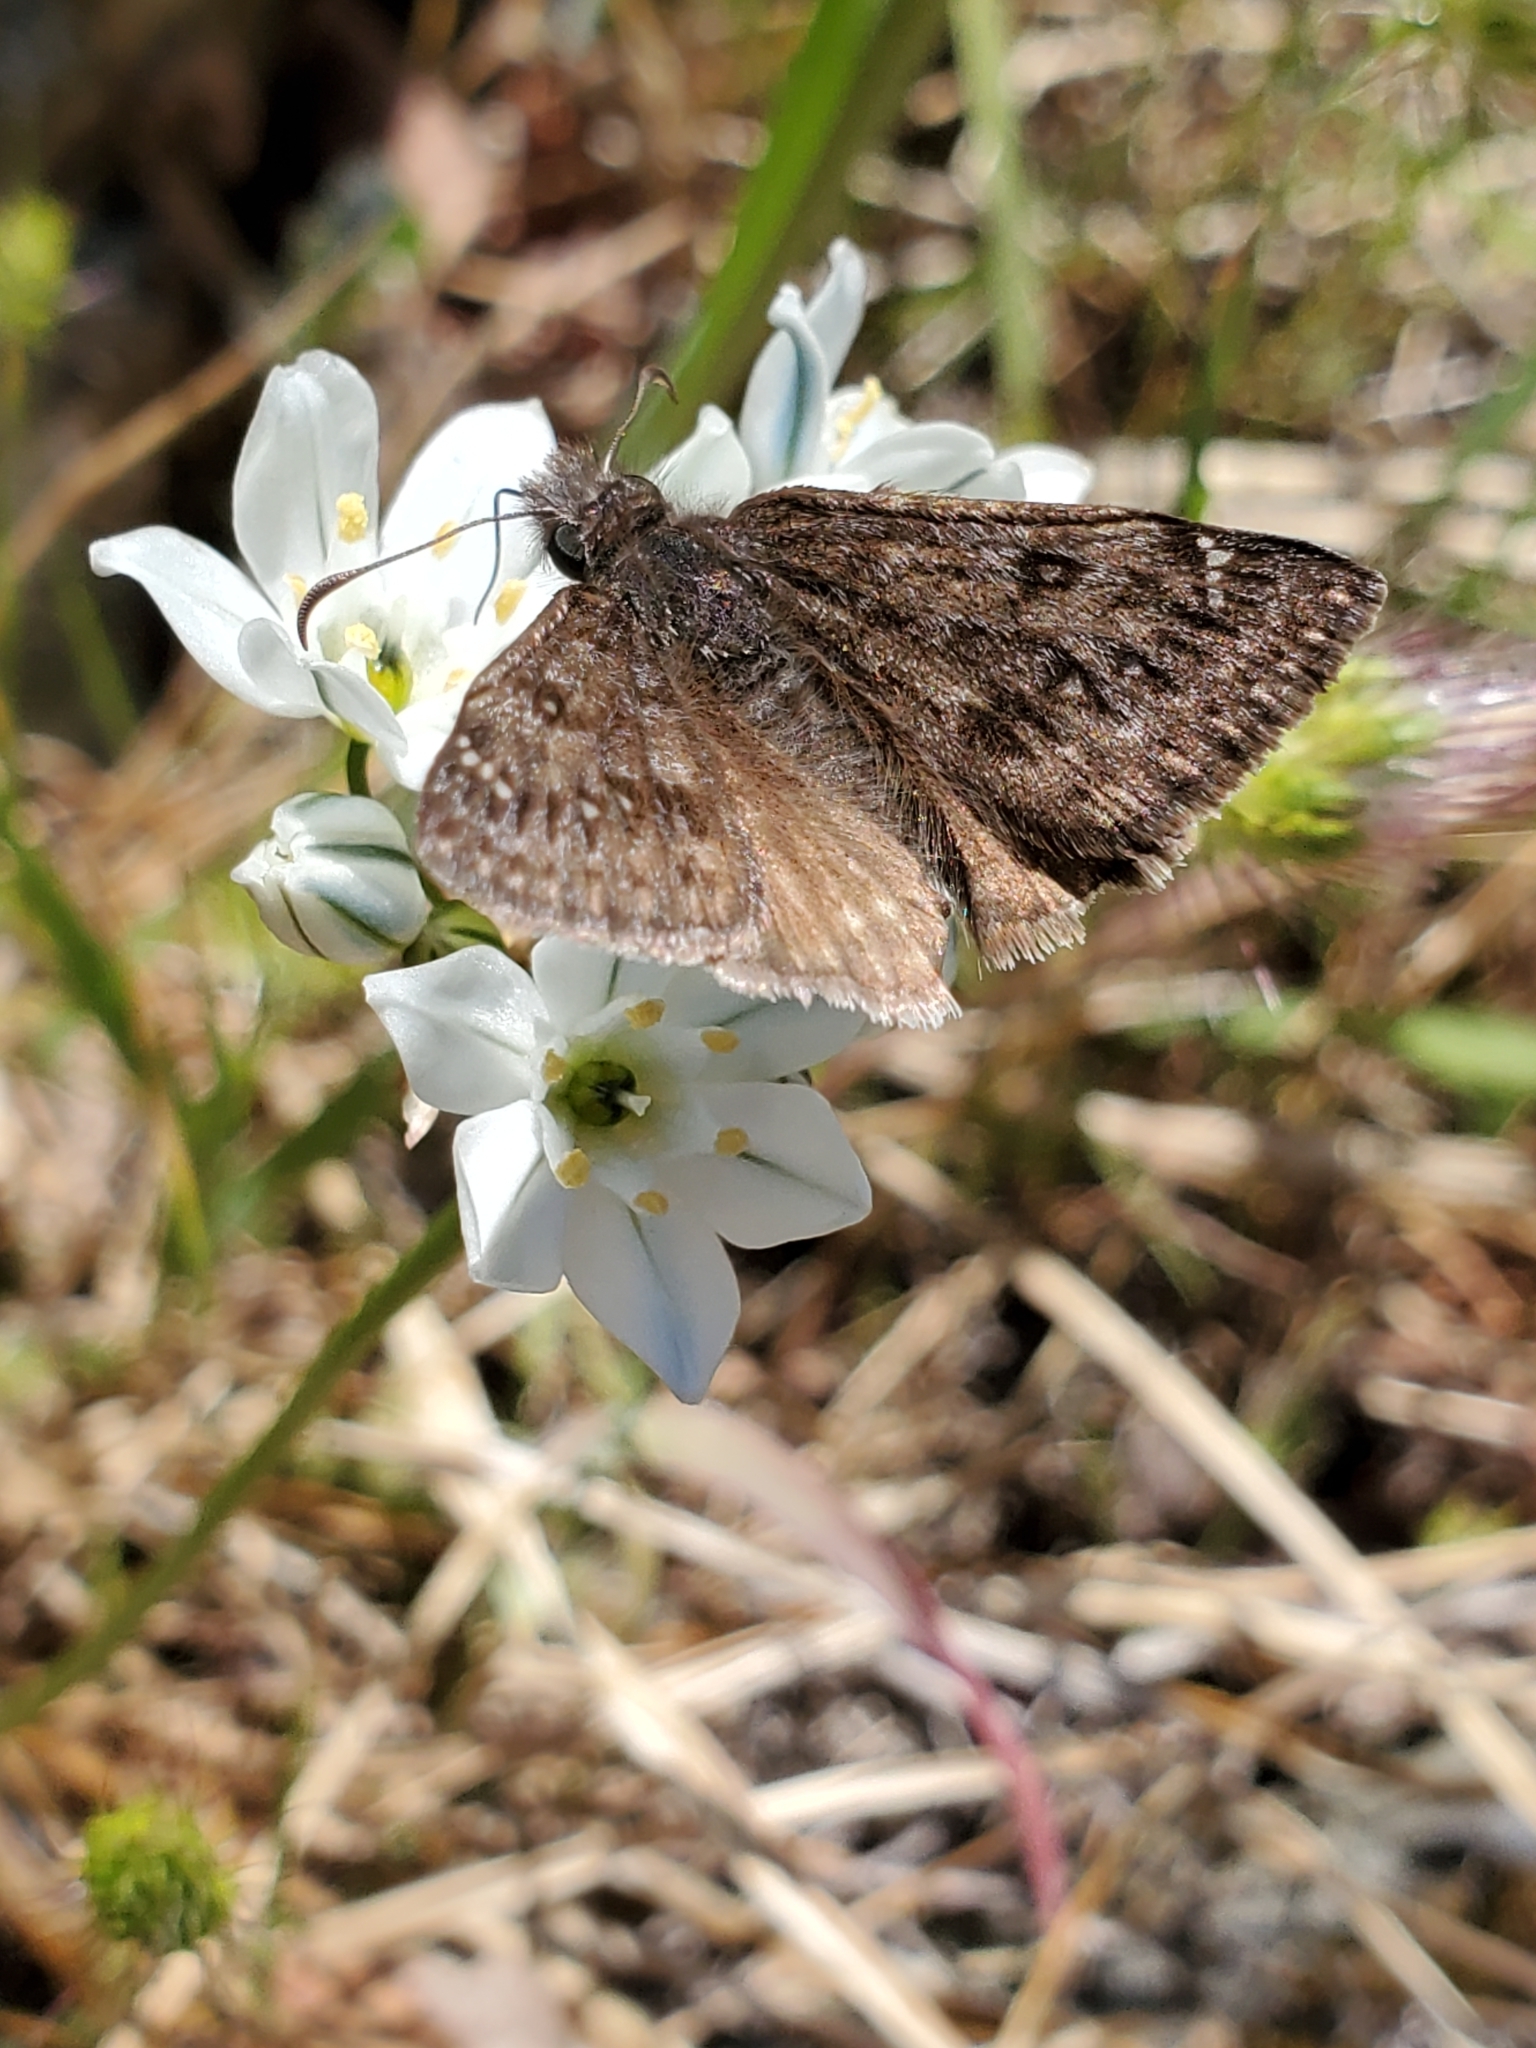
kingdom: Animalia
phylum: Arthropoda
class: Insecta
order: Lepidoptera
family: Hesperiidae
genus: Erynnis
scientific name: Erynnis propertius
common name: Propertius duskywing
